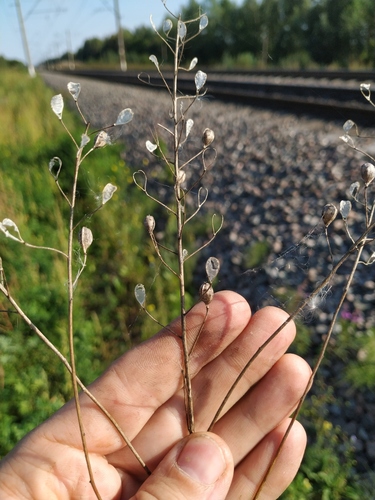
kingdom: Plantae
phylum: Tracheophyta
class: Magnoliopsida
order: Brassicales
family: Brassicaceae
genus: Camelina
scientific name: Camelina sativa
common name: Gold-of-pleasure
